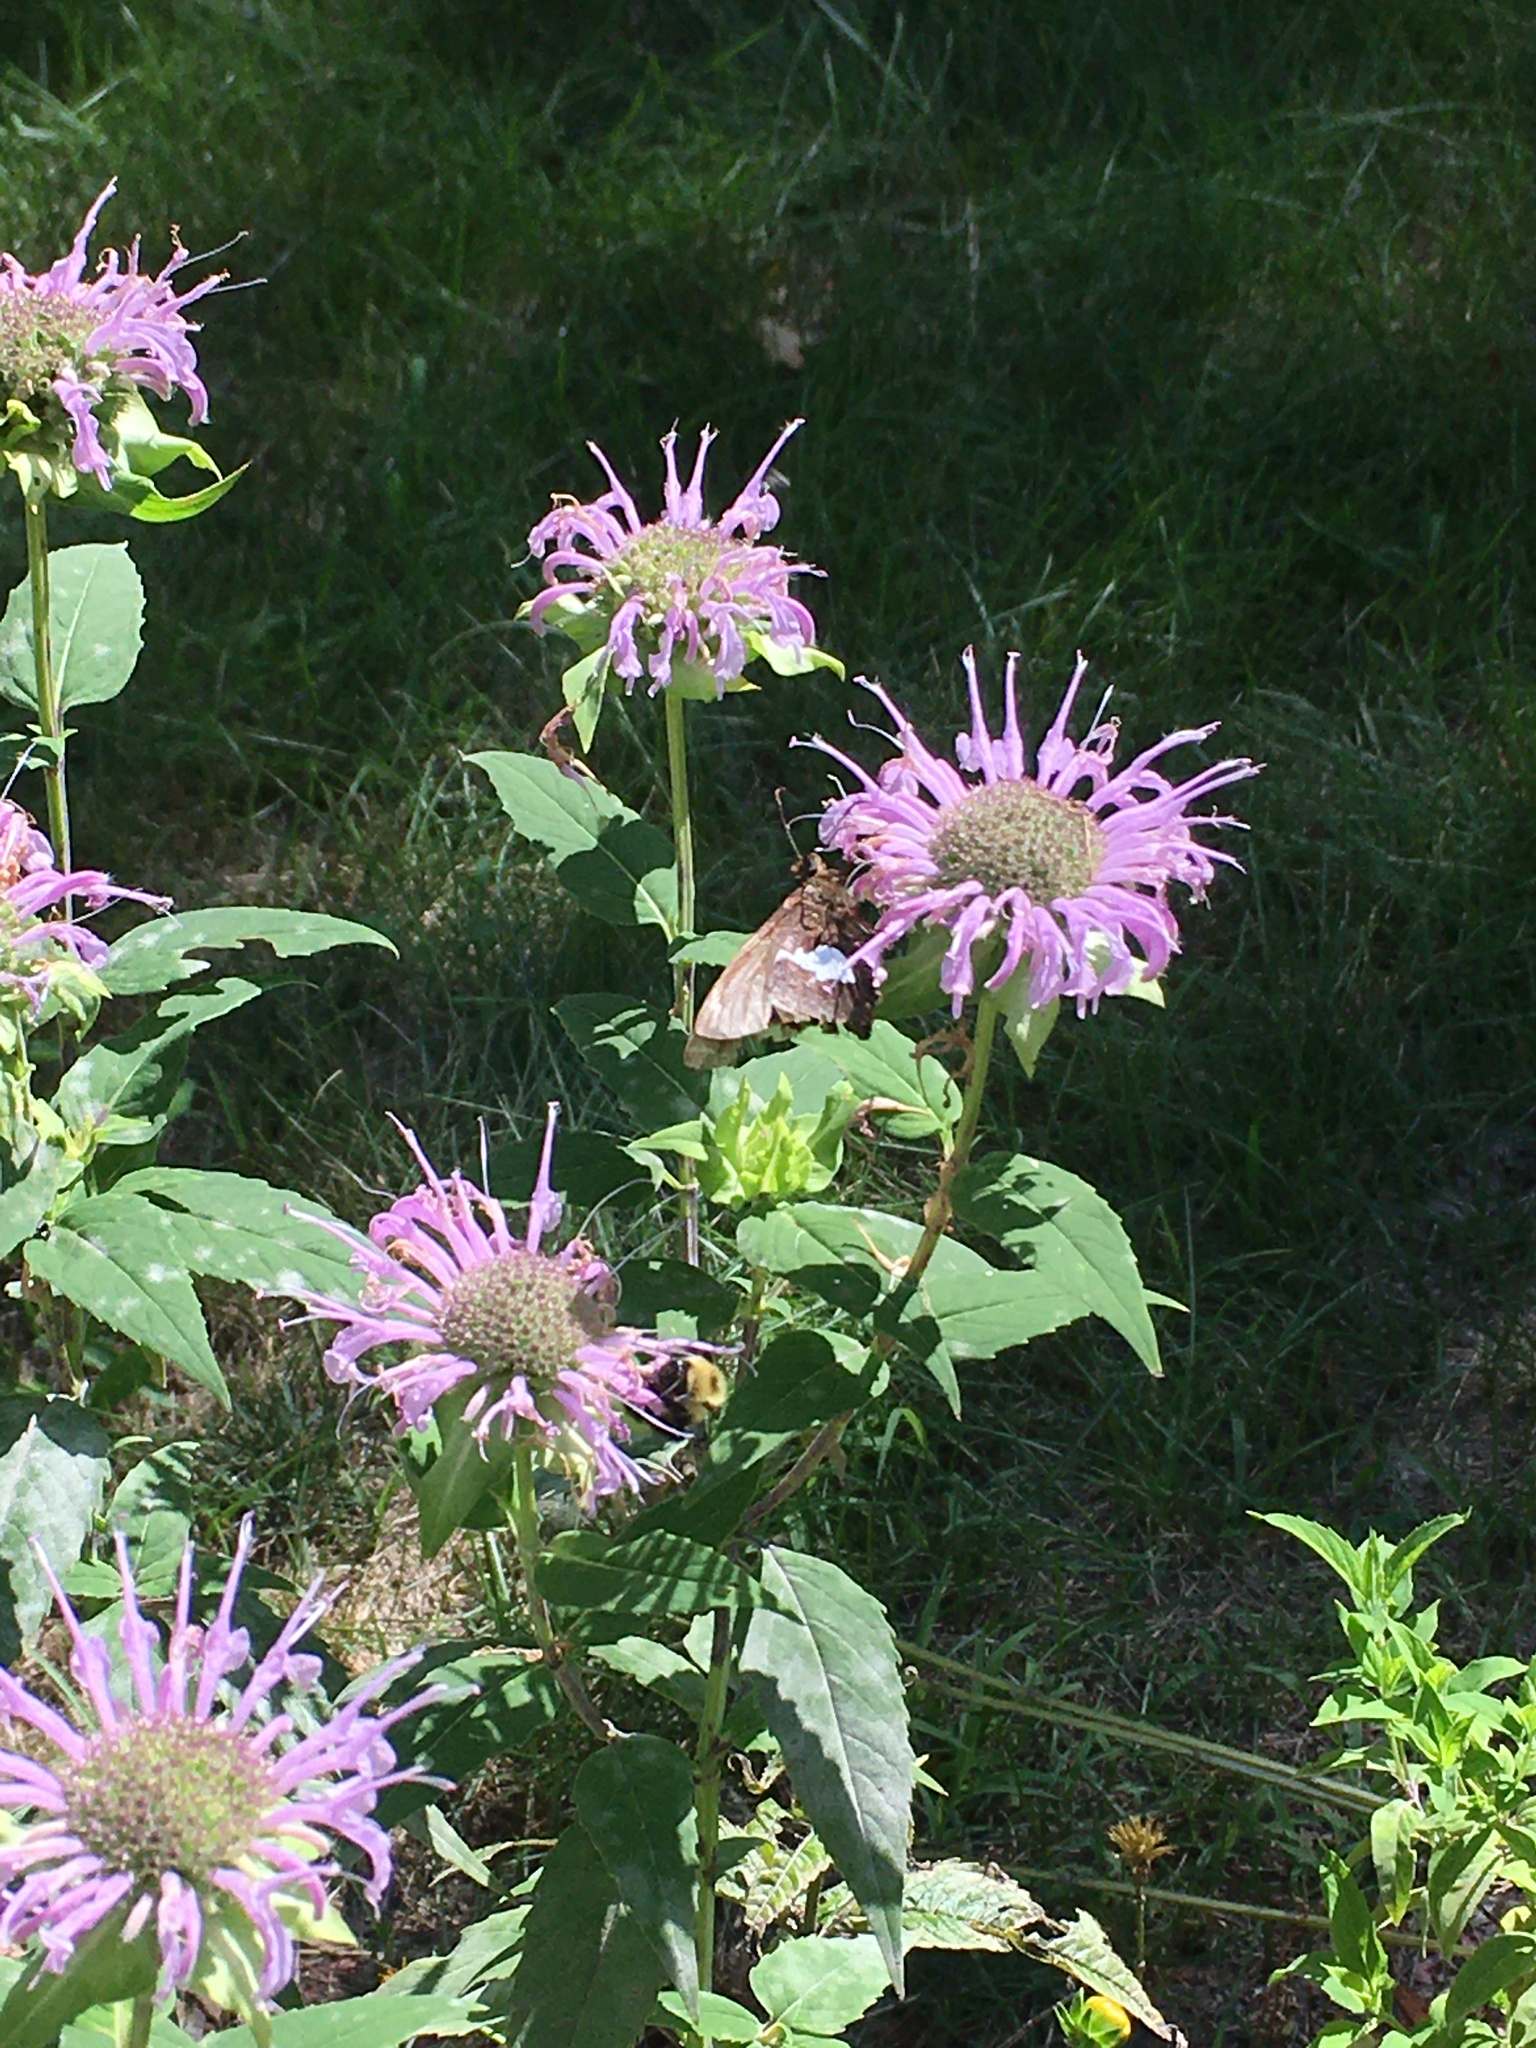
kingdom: Animalia
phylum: Arthropoda
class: Insecta
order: Lepidoptera
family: Hesperiidae
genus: Epargyreus
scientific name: Epargyreus clarus
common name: Silver-spotted skipper
